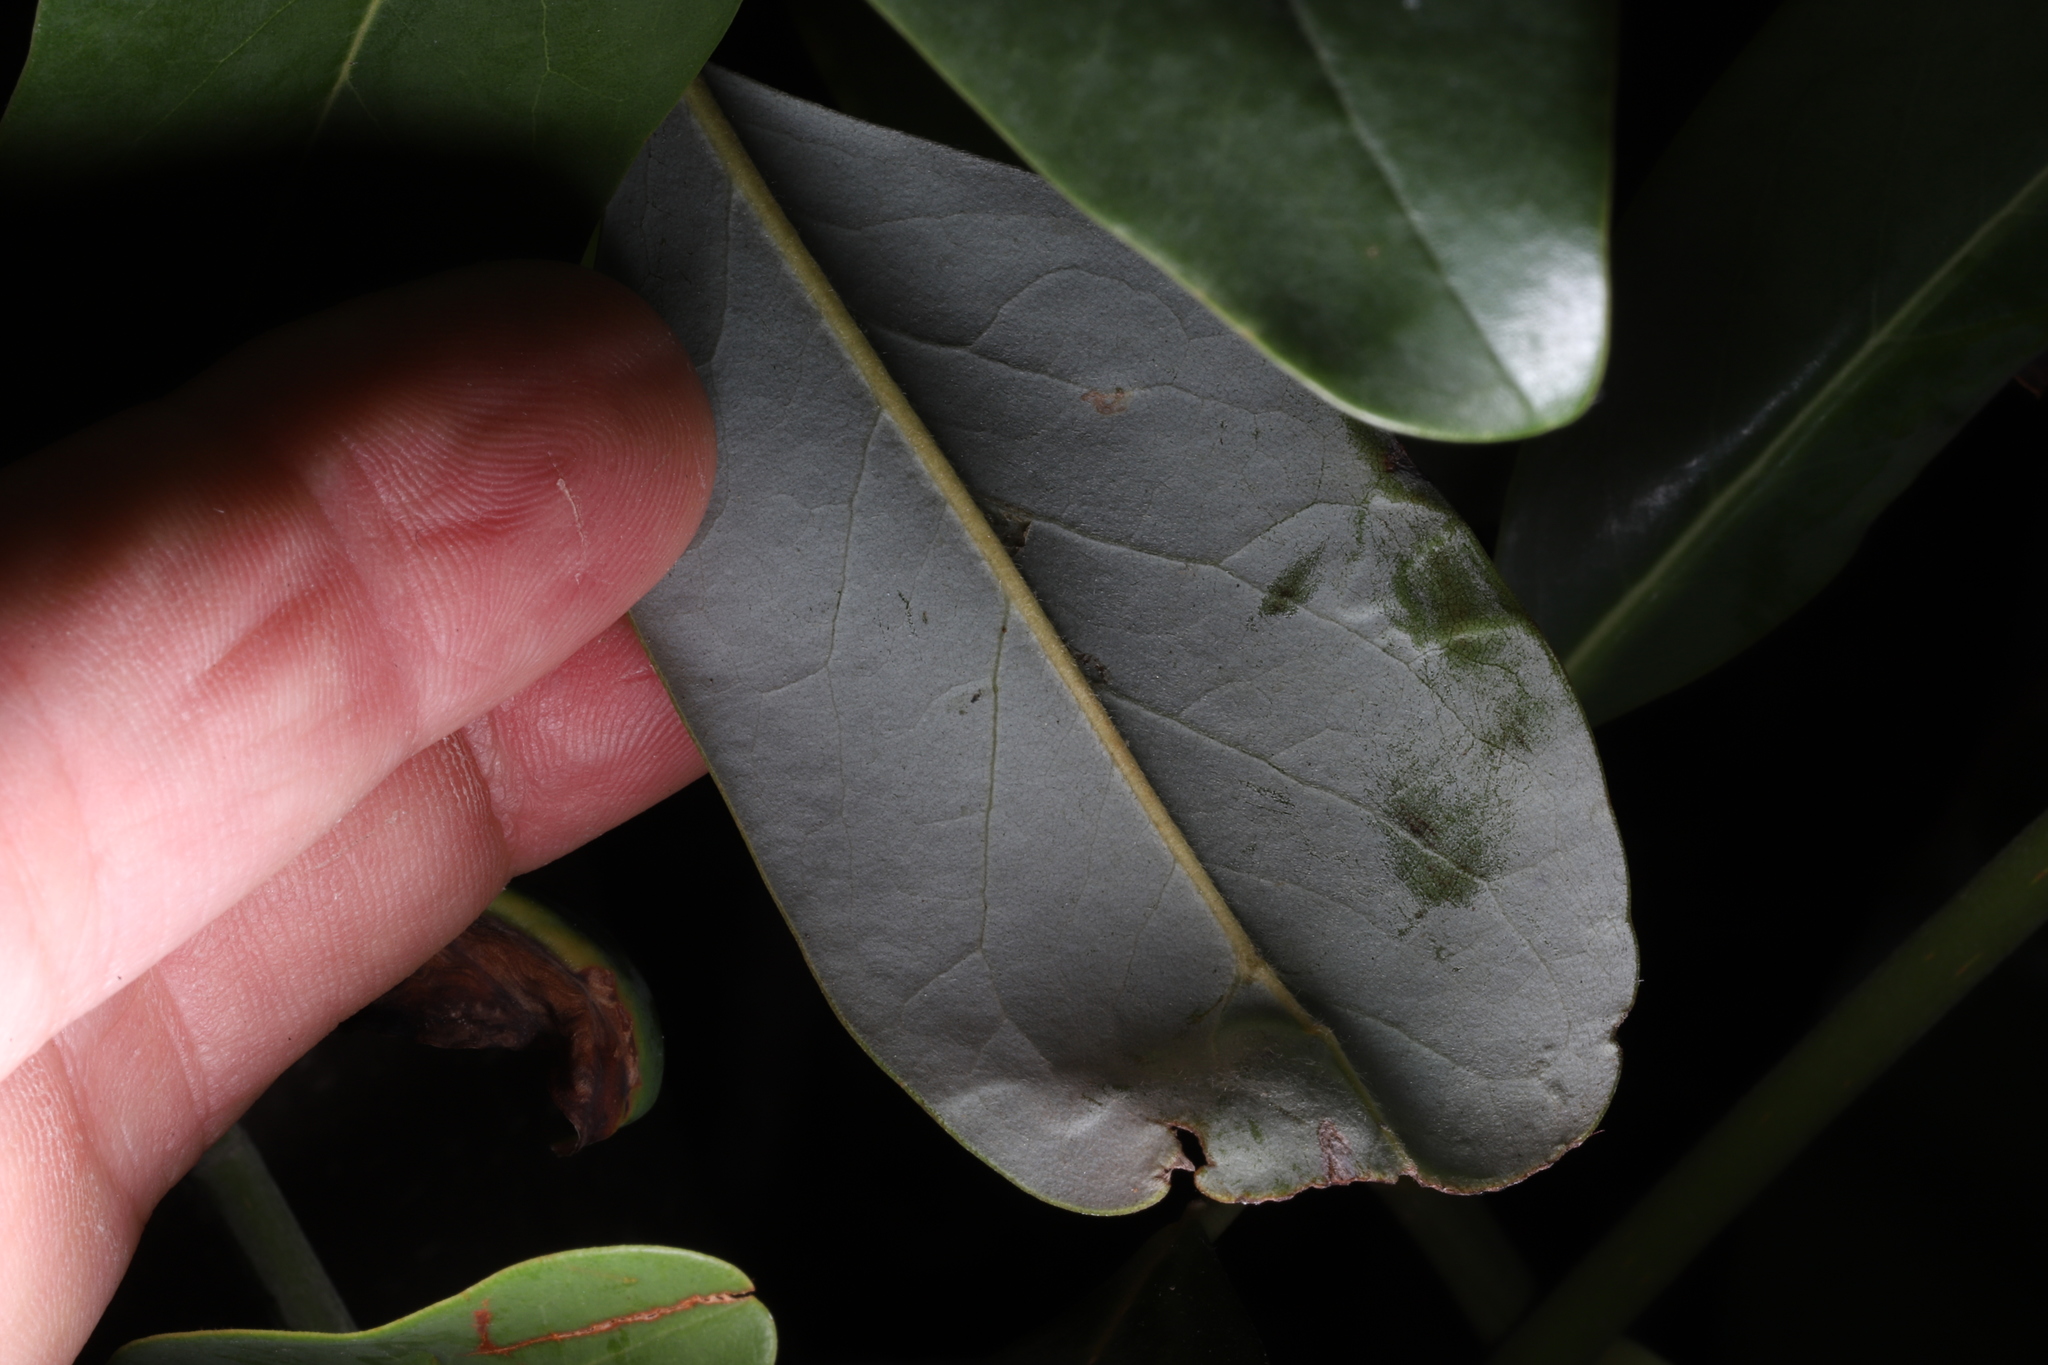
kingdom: Animalia
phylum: Arthropoda
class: Insecta
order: Lepidoptera
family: Gracillariidae
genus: Phyllocnistis
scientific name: Phyllocnistis liriodendronella
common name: Tulip tree leaf miner
